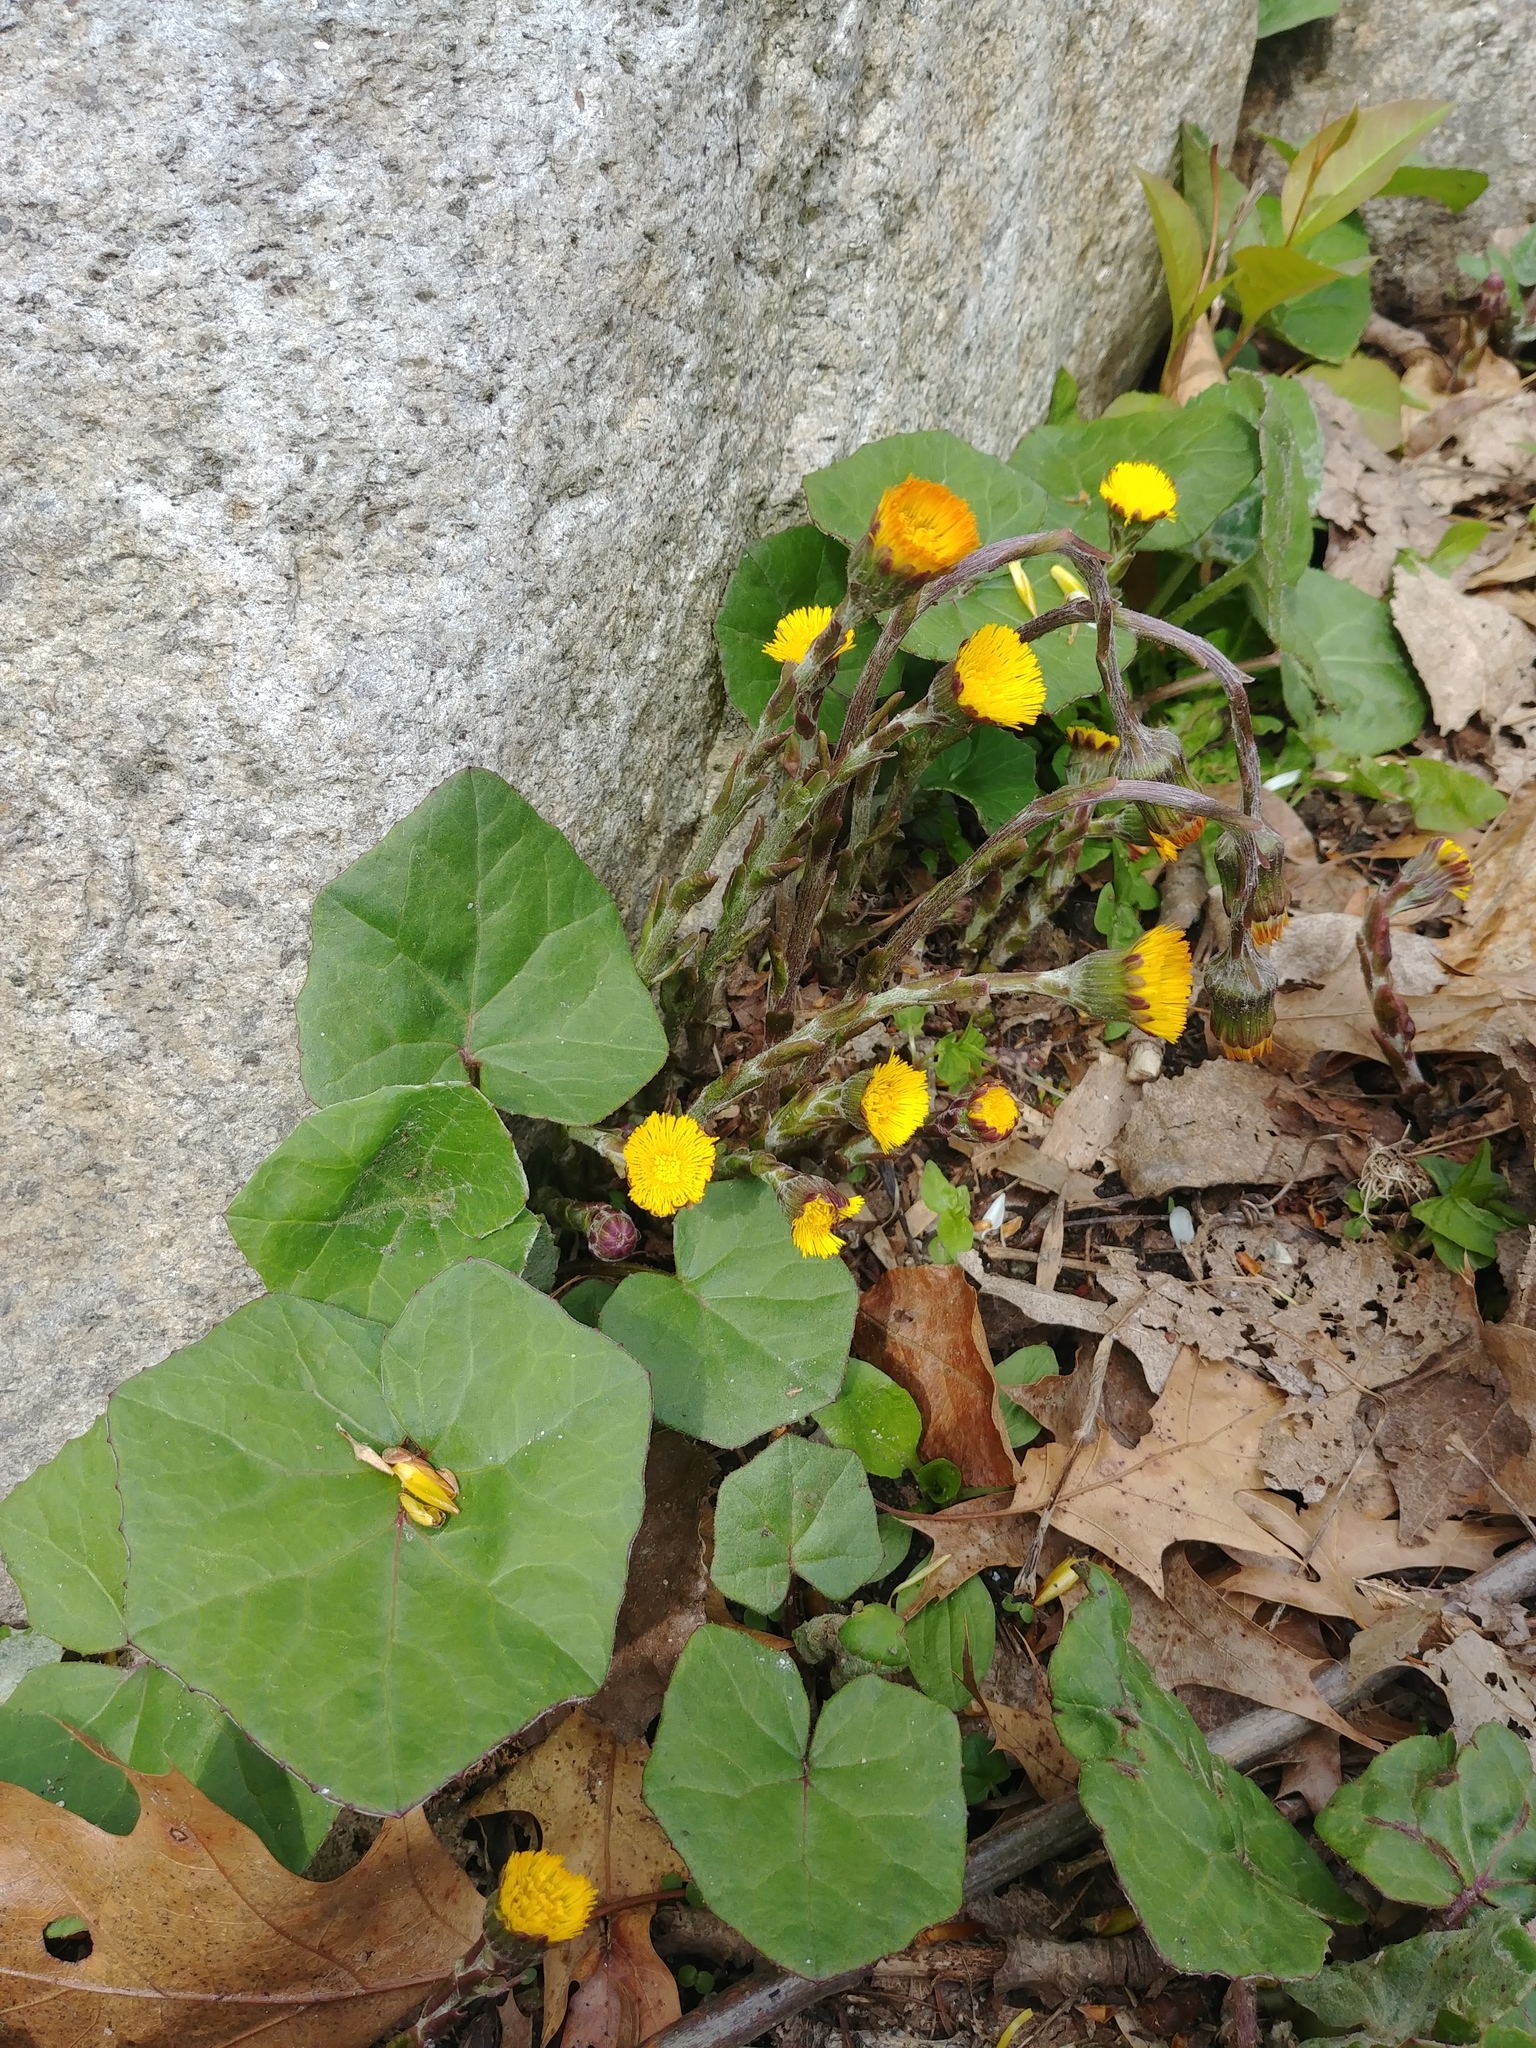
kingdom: Plantae
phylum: Tracheophyta
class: Magnoliopsida
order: Asterales
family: Asteraceae
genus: Tussilago
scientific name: Tussilago farfara
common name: Coltsfoot
